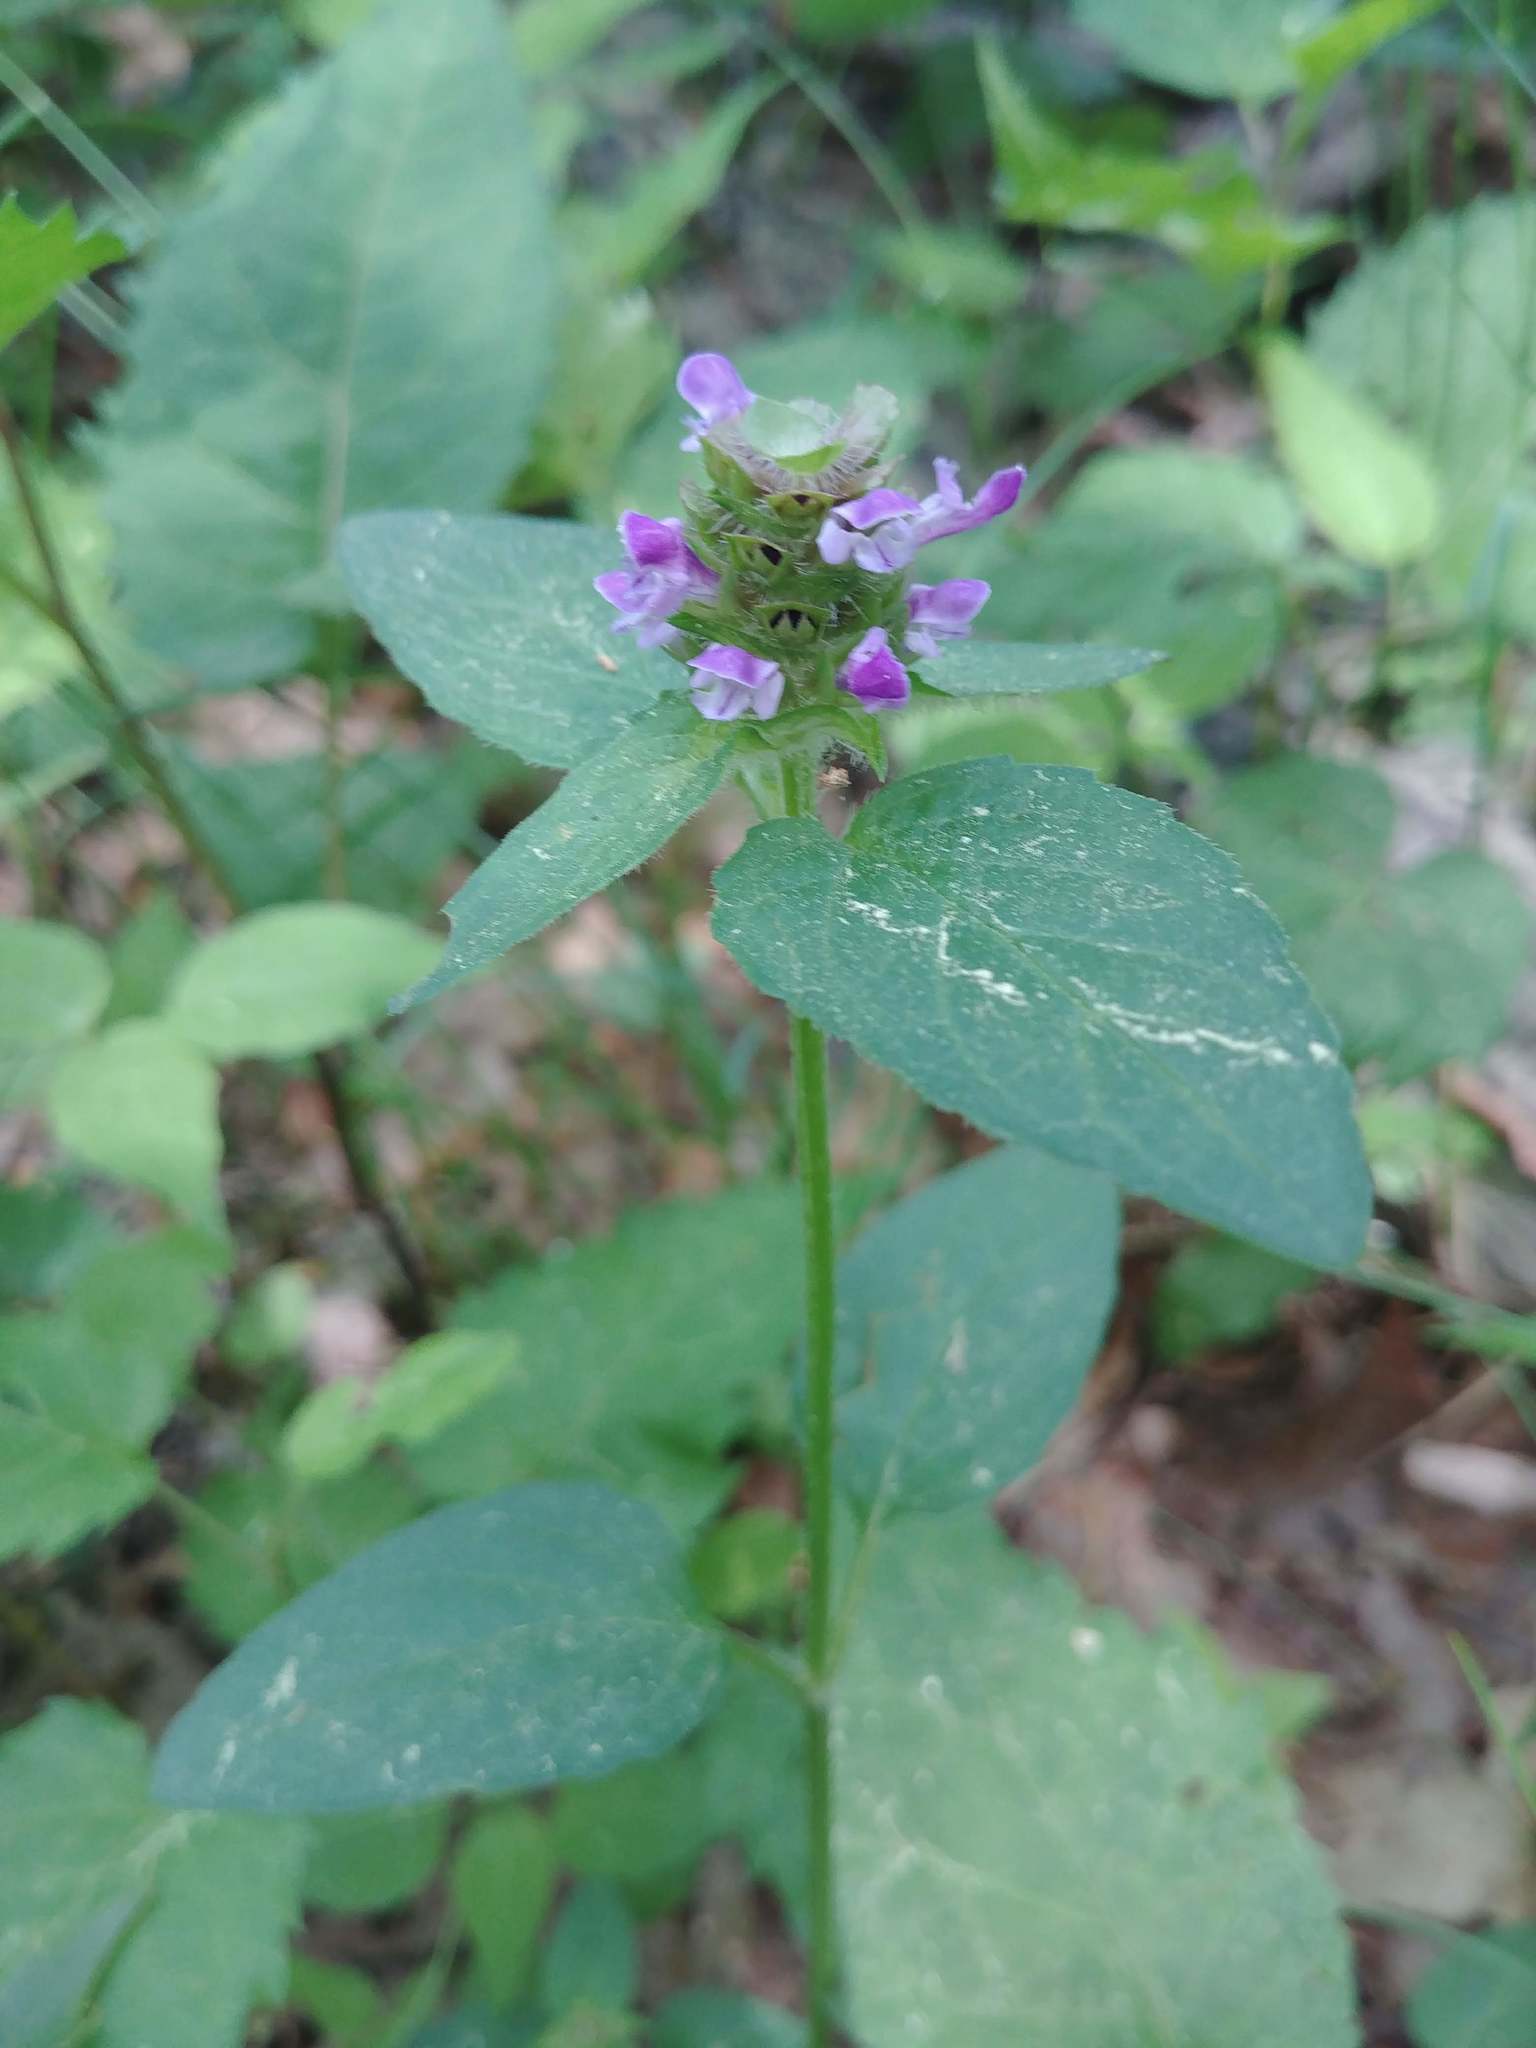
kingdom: Plantae
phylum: Tracheophyta
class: Magnoliopsida
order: Lamiales
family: Lamiaceae
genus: Prunella
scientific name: Prunella vulgaris
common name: Heal-all
